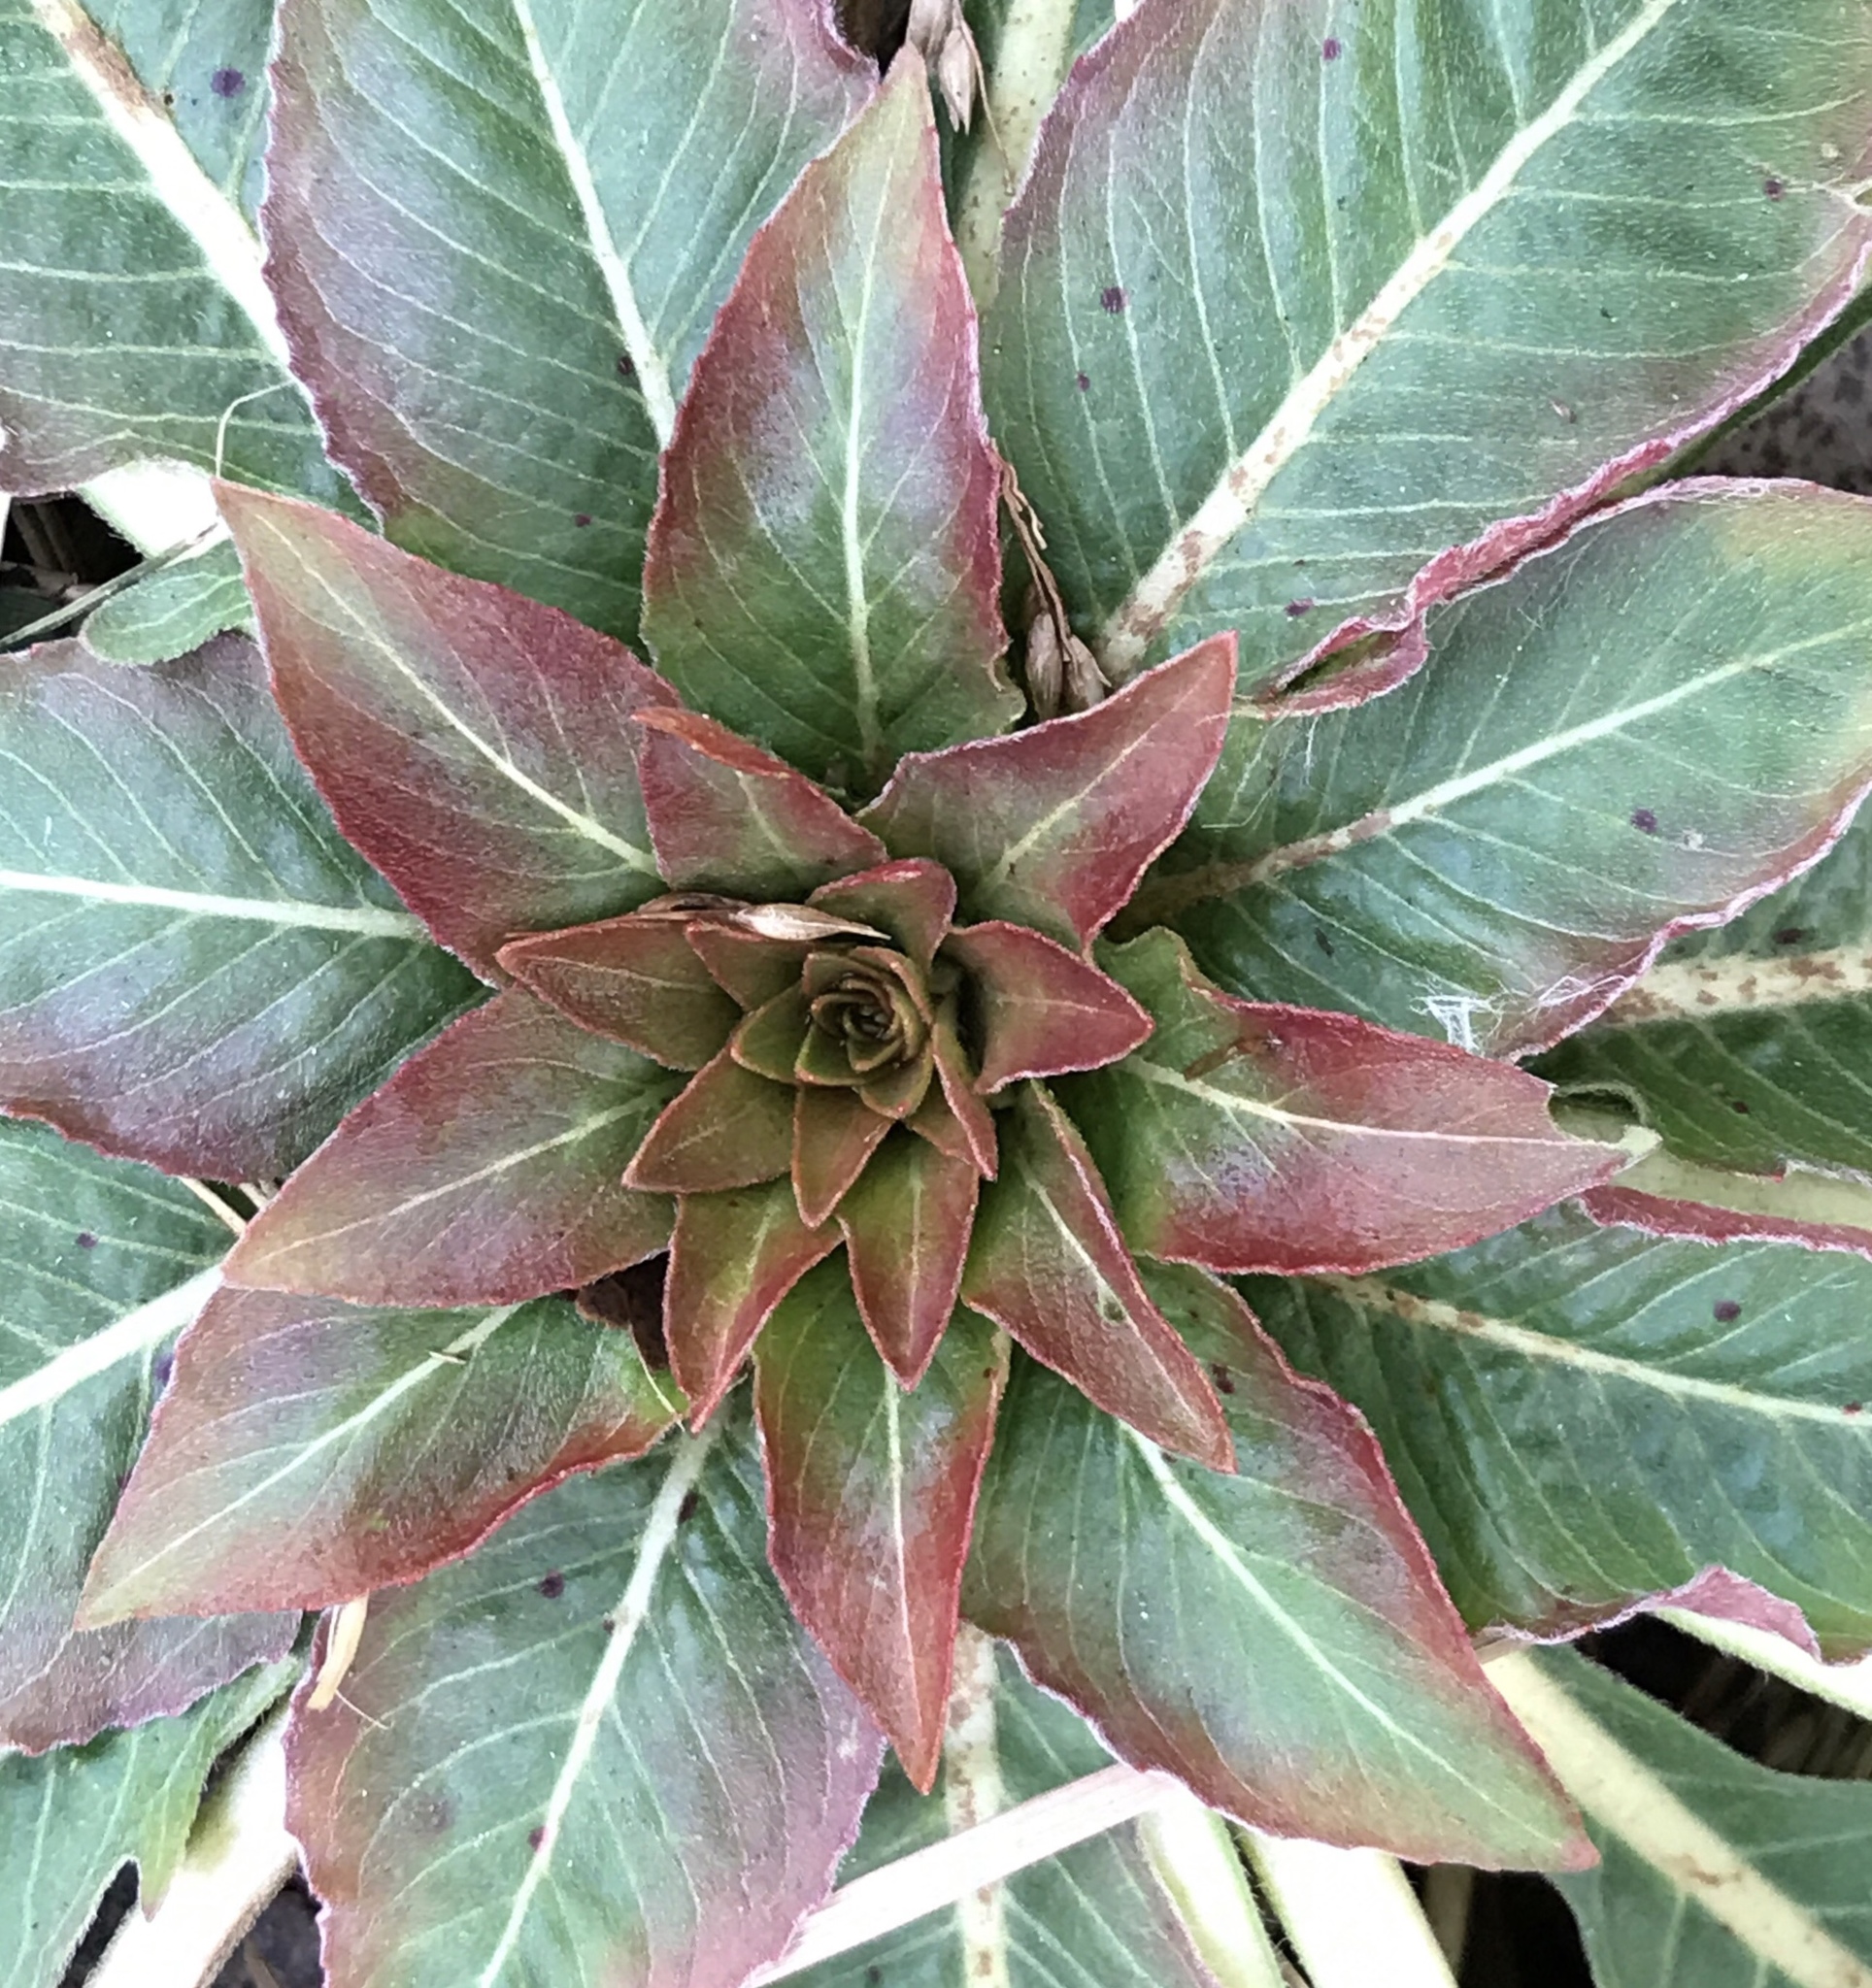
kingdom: Plantae
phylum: Tracheophyta
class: Magnoliopsida
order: Myrtales
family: Onagraceae
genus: Oenothera
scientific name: Oenothera biennis
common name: Common evening-primrose
